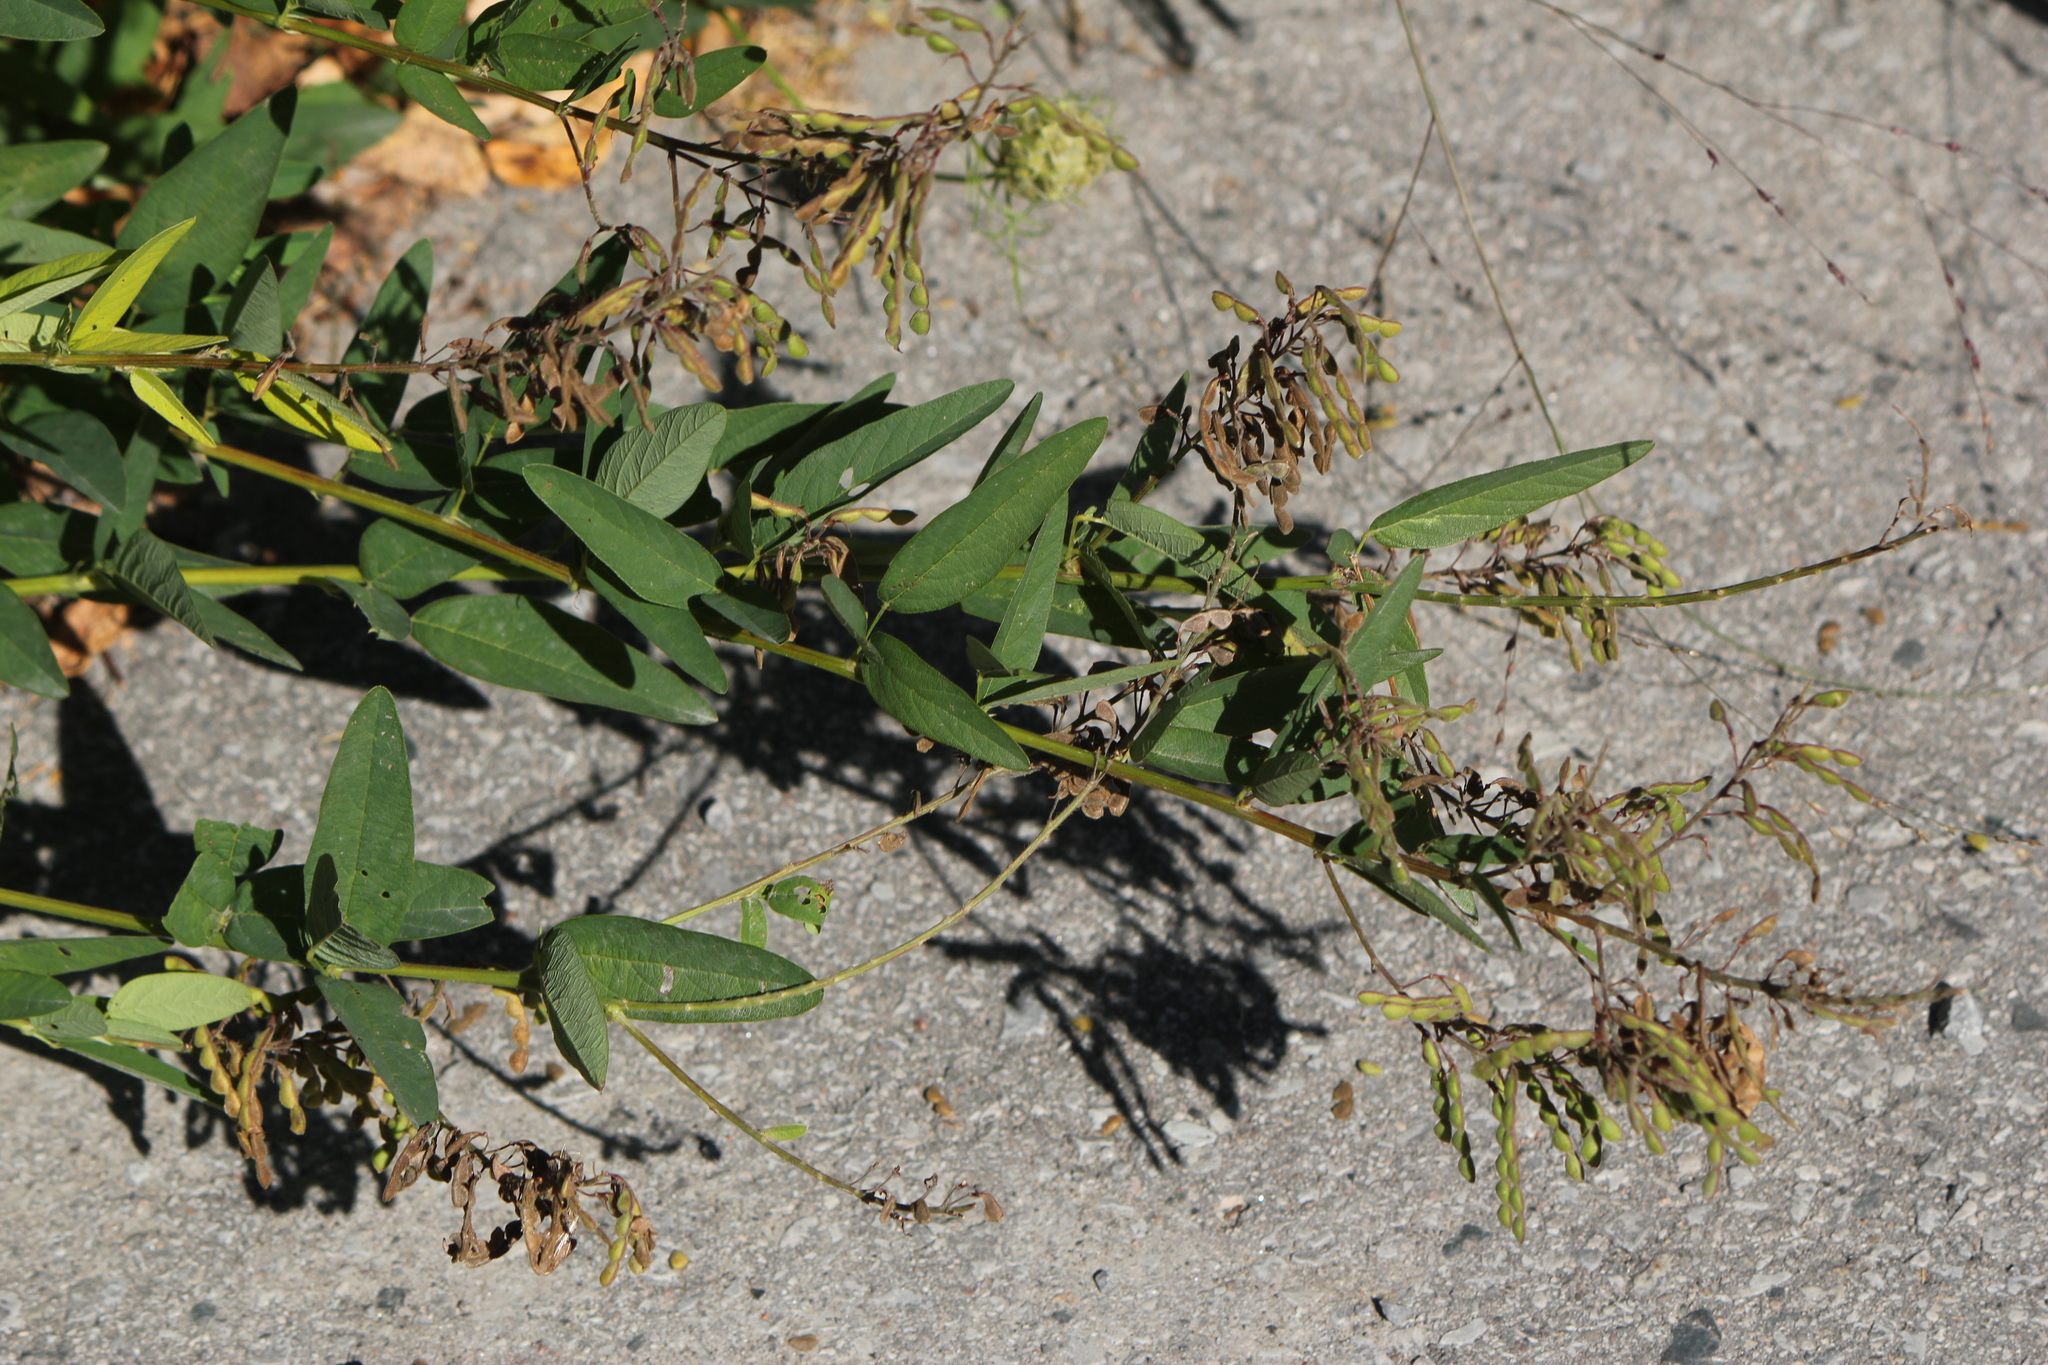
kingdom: Plantae
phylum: Tracheophyta
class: Magnoliopsida
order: Fabales
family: Fabaceae
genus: Desmodium
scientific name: Desmodium canadense
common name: Canada tick-trefoil
